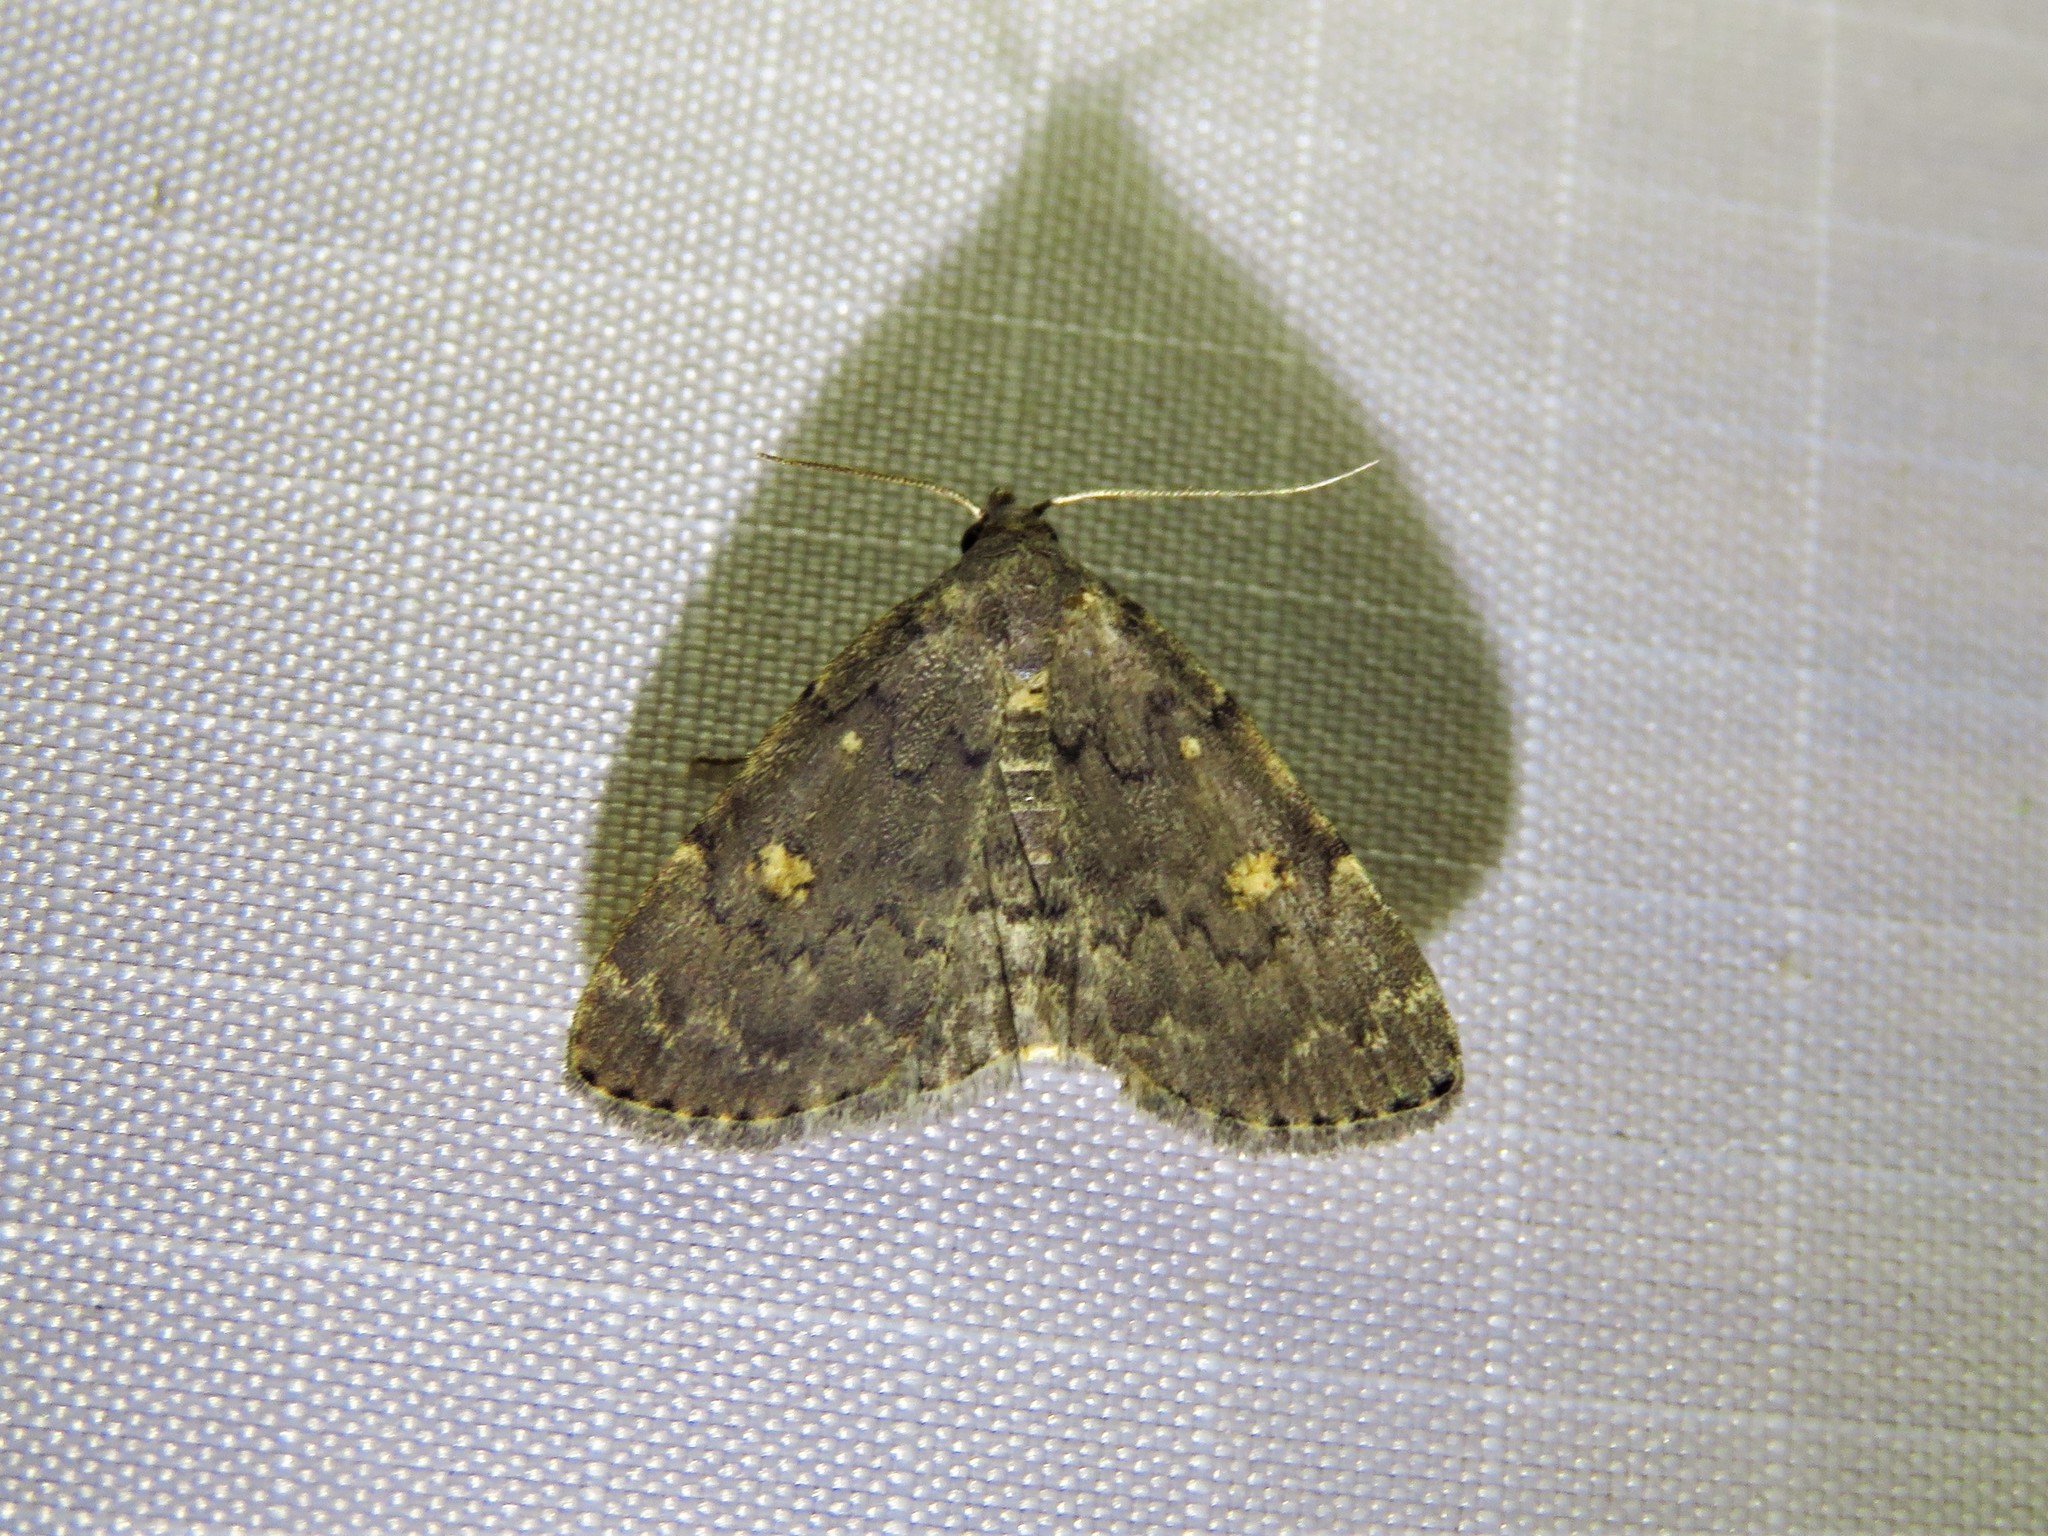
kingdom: Animalia
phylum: Arthropoda
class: Insecta
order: Lepidoptera
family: Erebidae
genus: Idia
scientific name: Idia aemula
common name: Common idia moth
